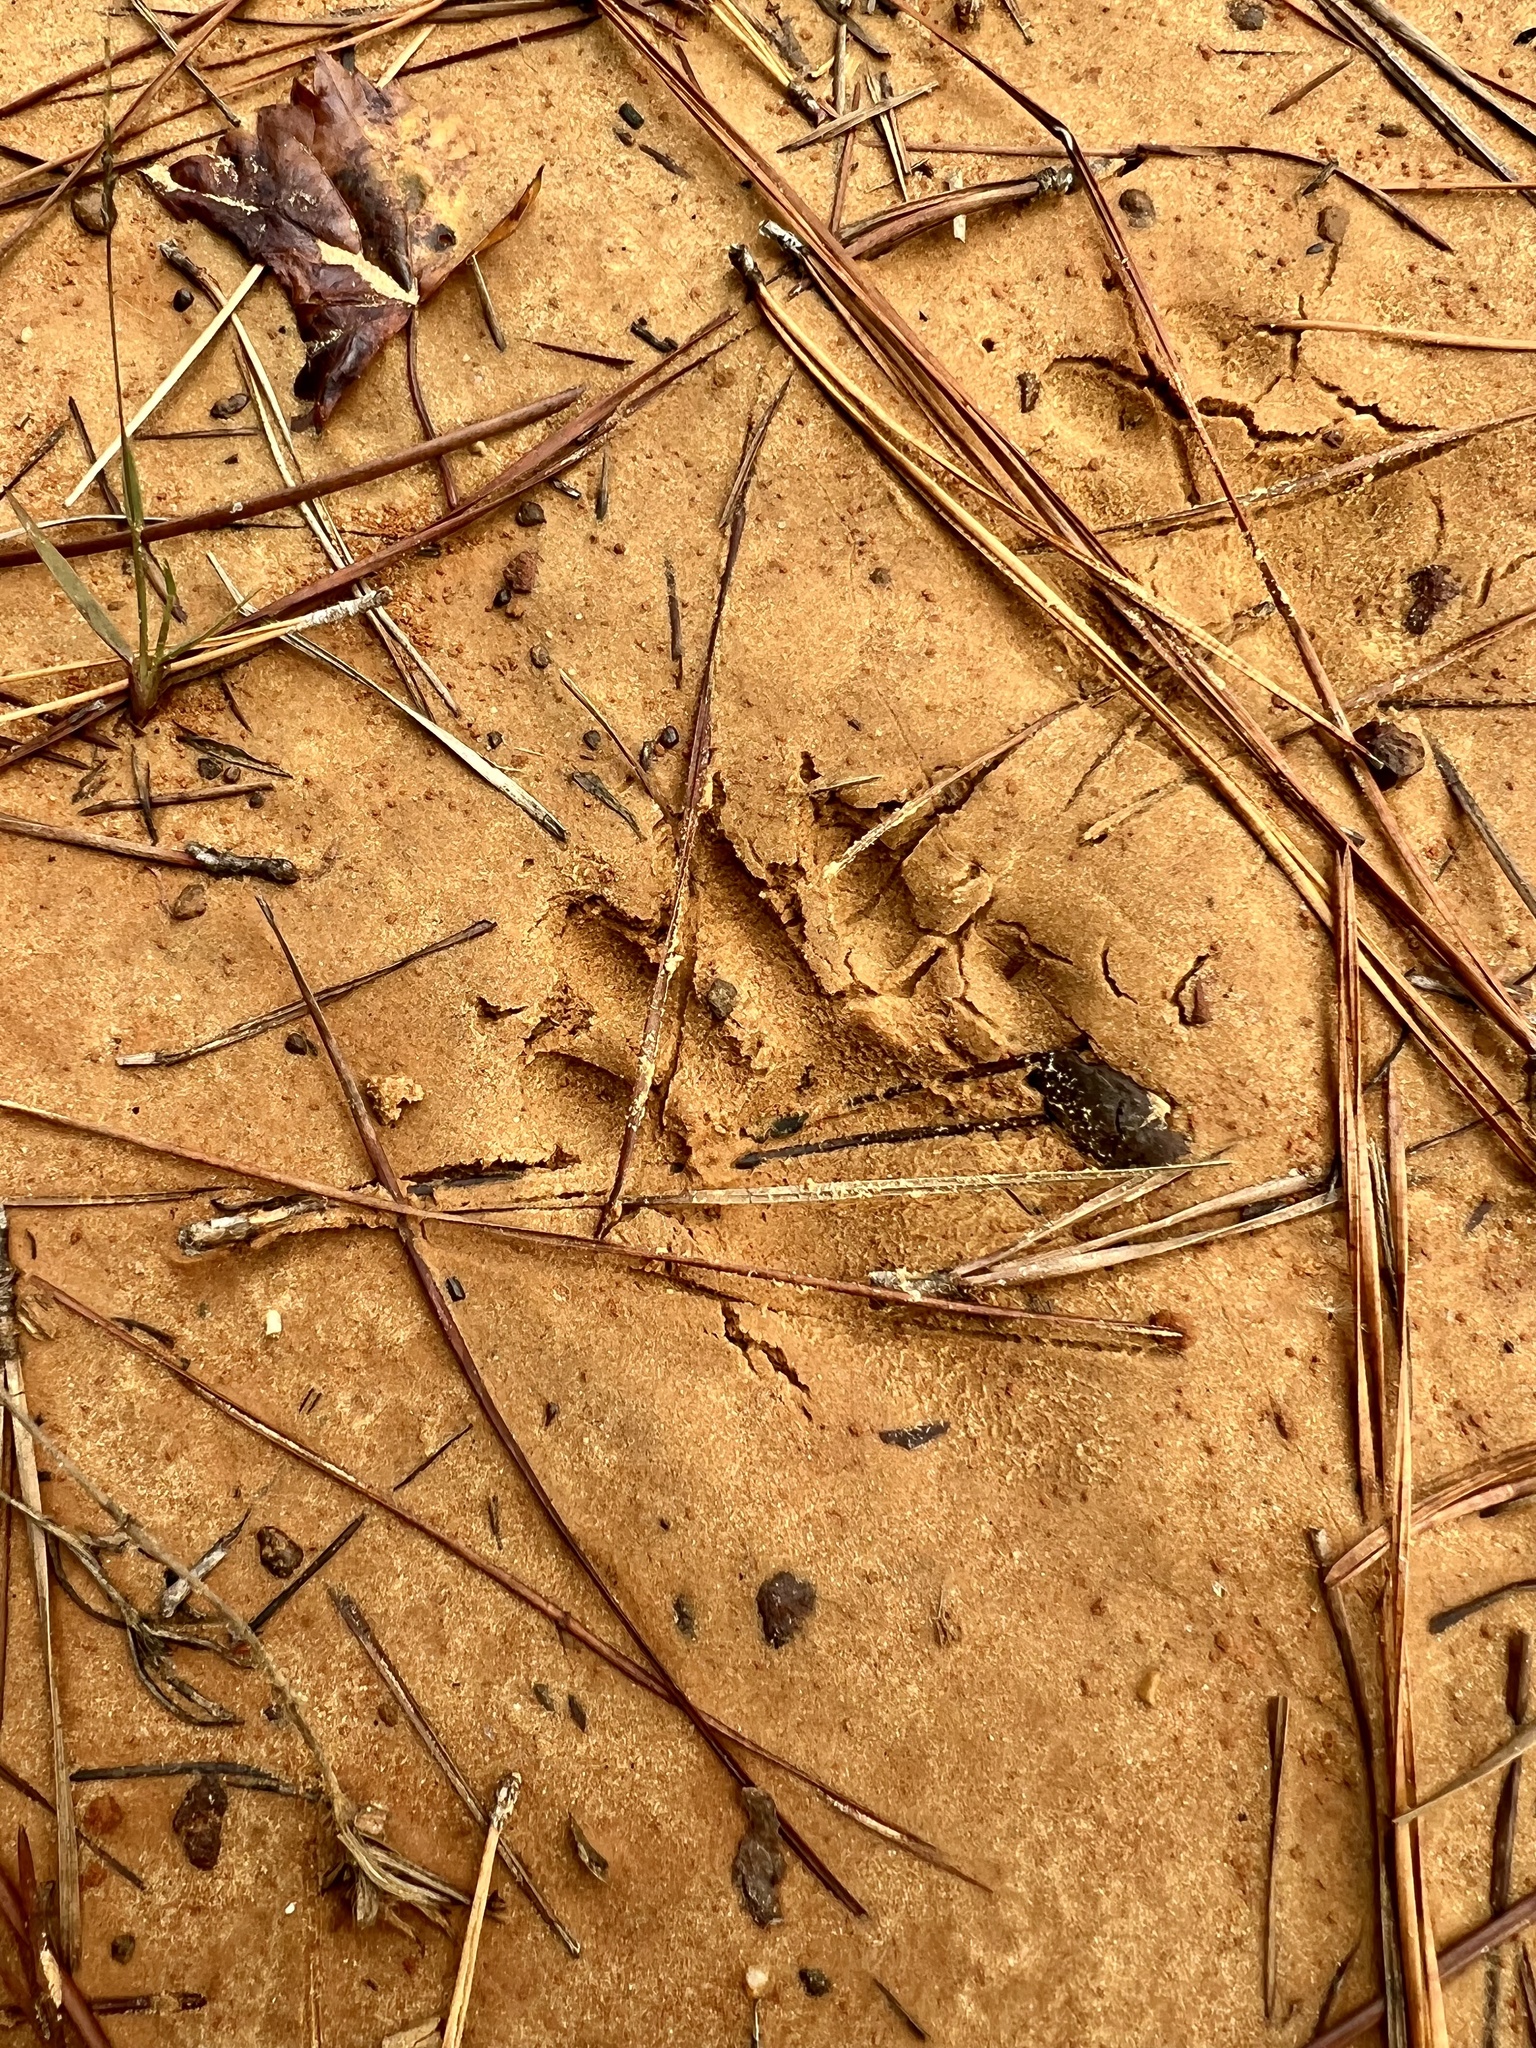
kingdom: Animalia
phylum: Chordata
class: Mammalia
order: Carnivora
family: Procyonidae
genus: Procyon
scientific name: Procyon lotor
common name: Raccoon
